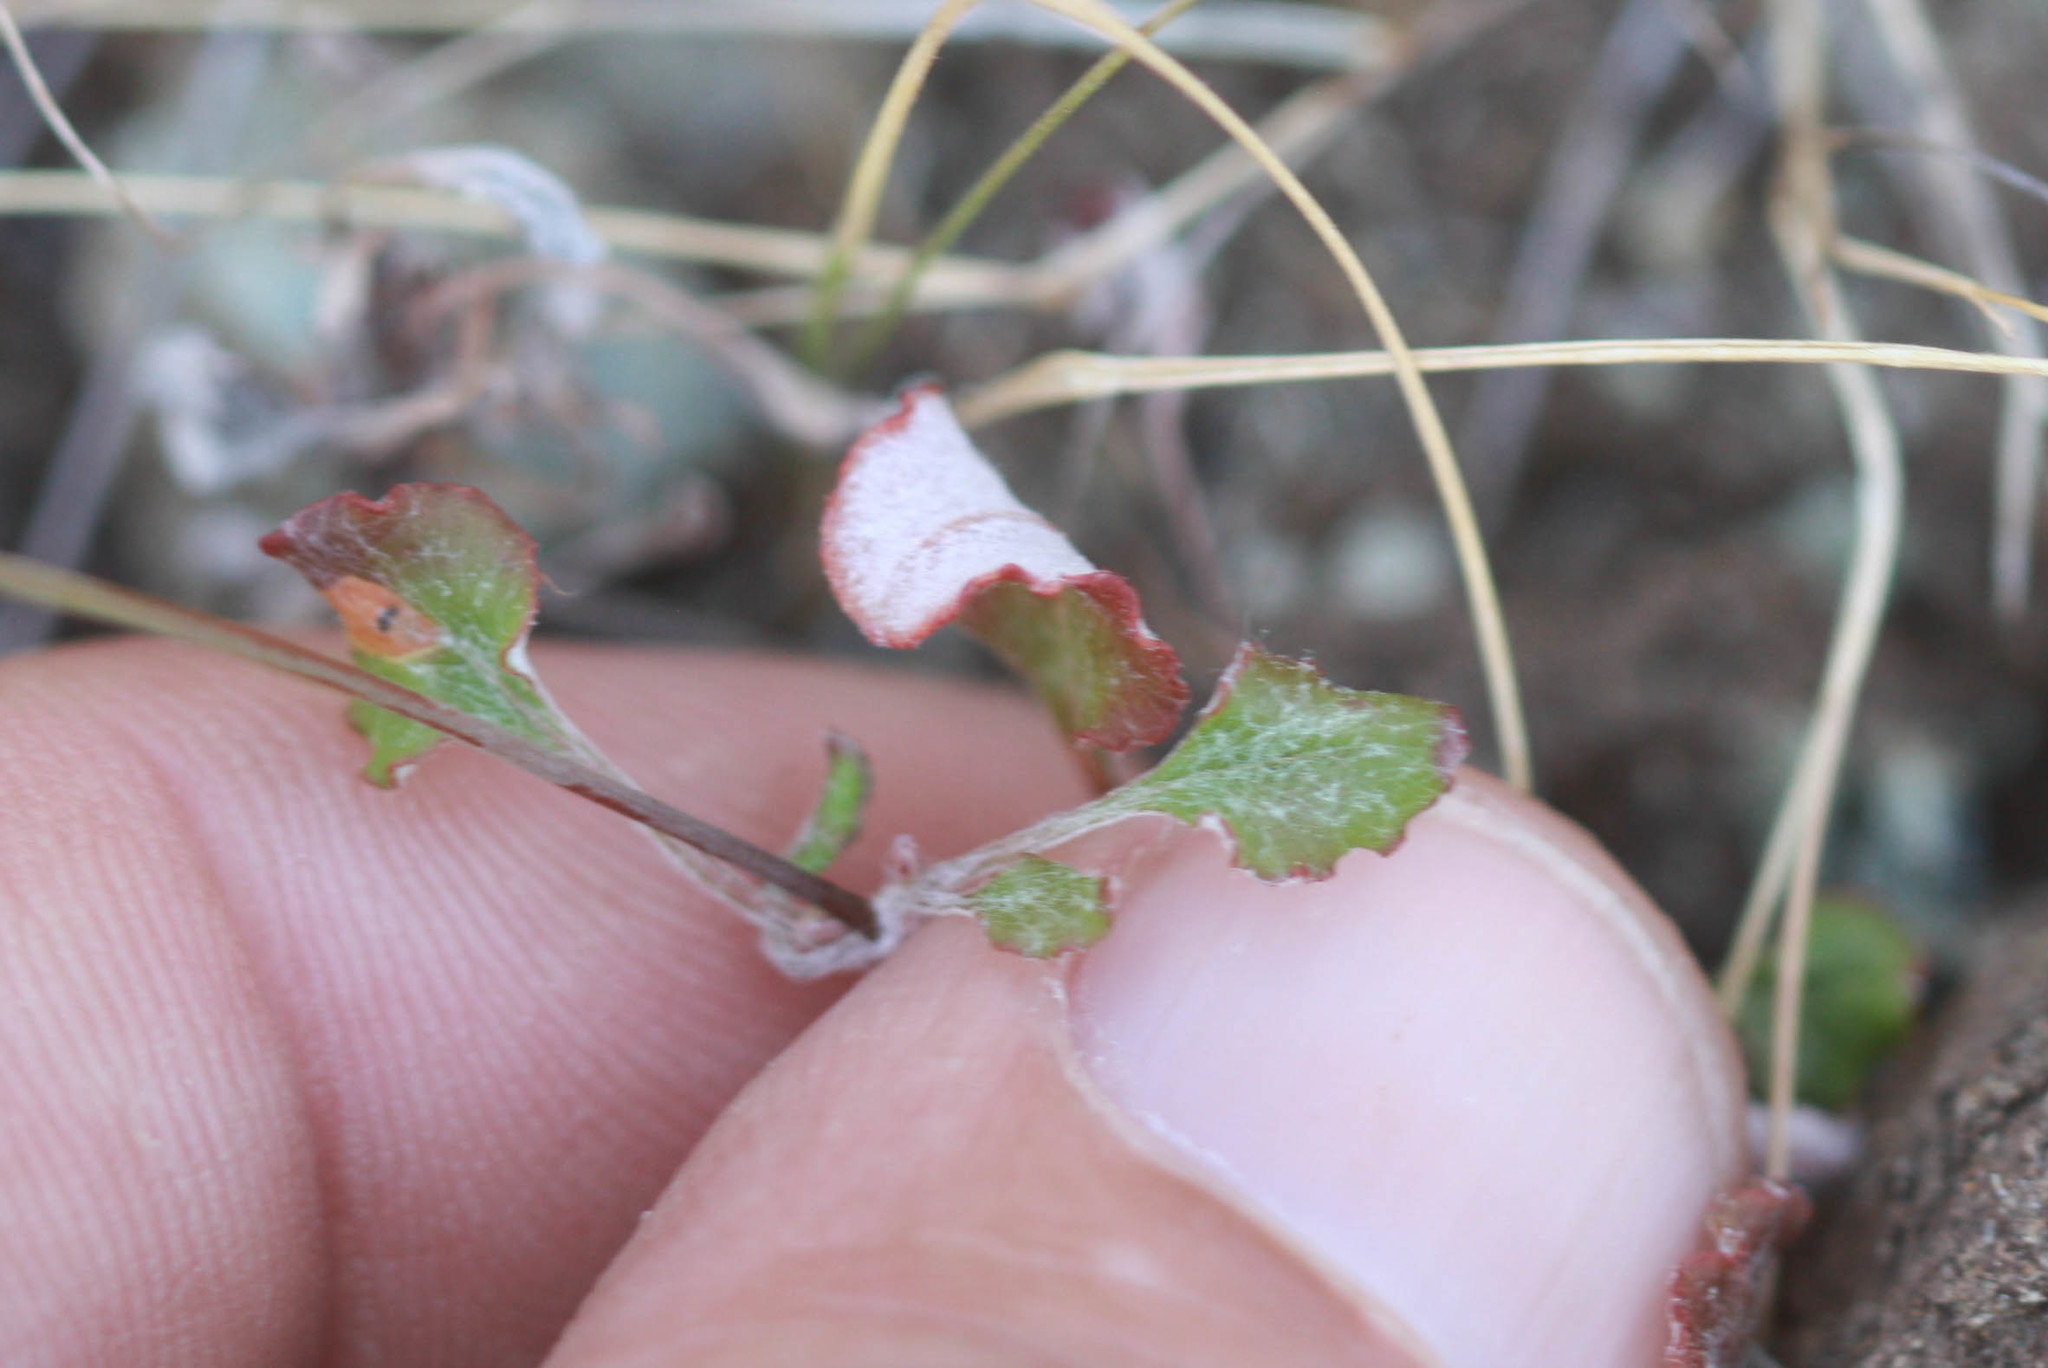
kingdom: Plantae
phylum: Tracheophyta
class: Magnoliopsida
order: Caryophyllales
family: Polygonaceae
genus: Eriogonum
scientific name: Eriogonum luteolum
